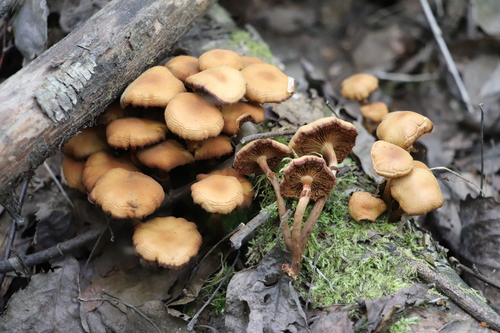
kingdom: Fungi
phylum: Basidiomycota
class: Agaricomycetes
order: Agaricales
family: Strophariaceae
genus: Kuehneromyces
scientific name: Kuehneromyces mutabilis
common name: Sheathed woodtuft
